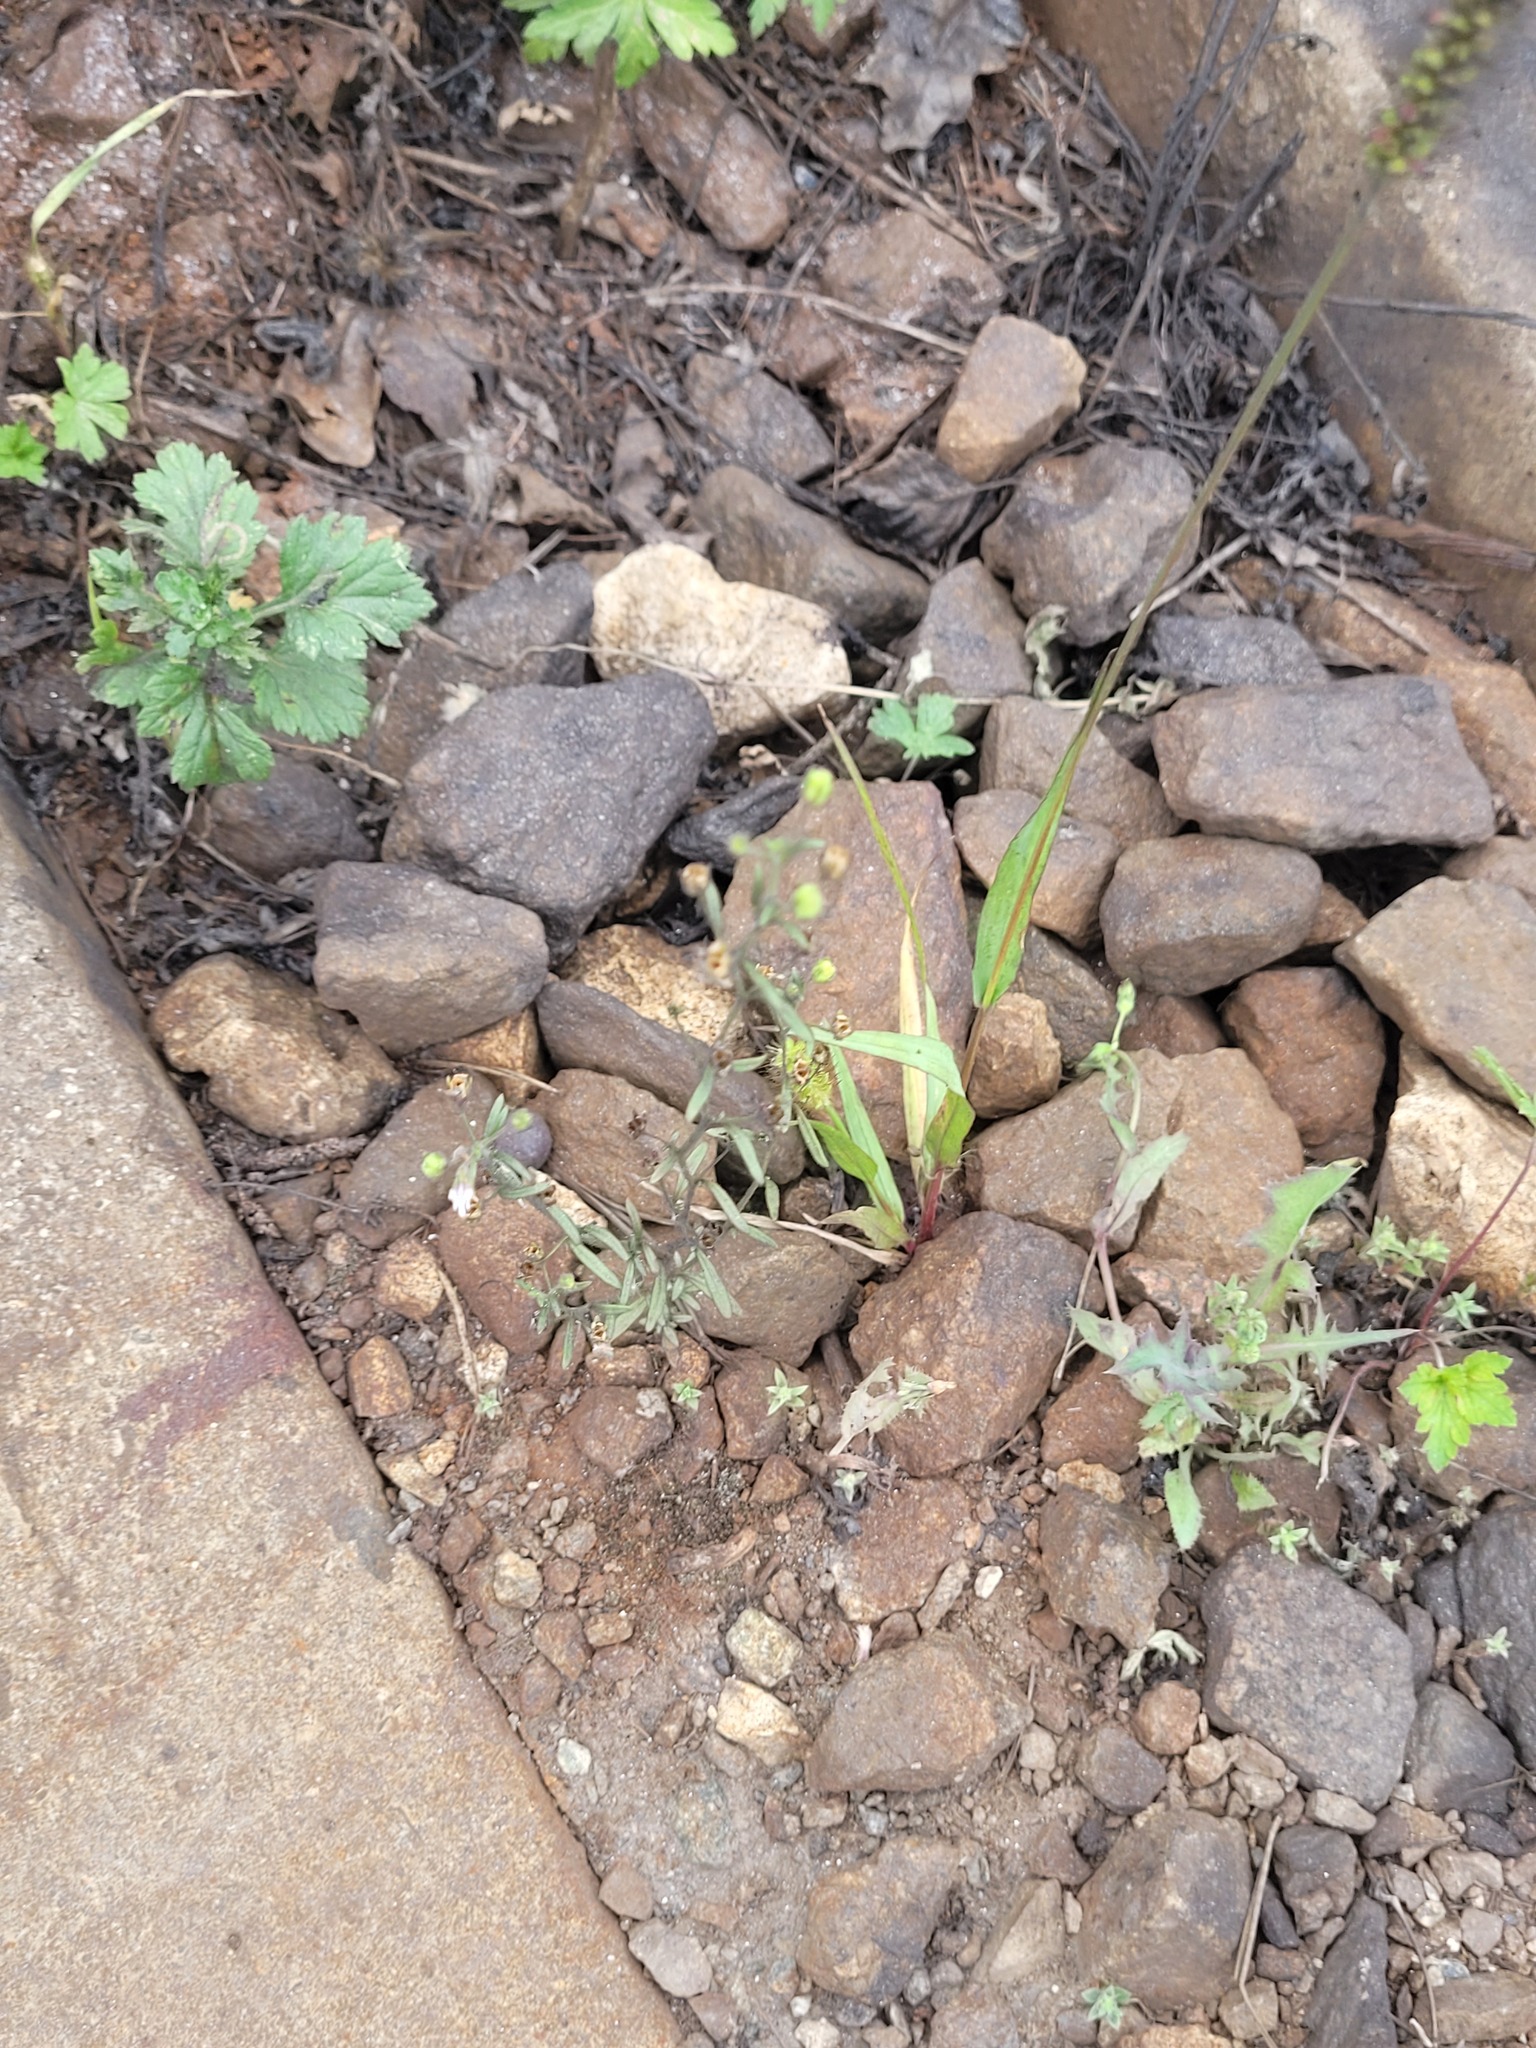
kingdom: Plantae
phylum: Tracheophyta
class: Magnoliopsida
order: Lamiales
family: Plantaginaceae
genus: Chaenorhinum
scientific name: Chaenorhinum minus
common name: Dwarf snapdragon
